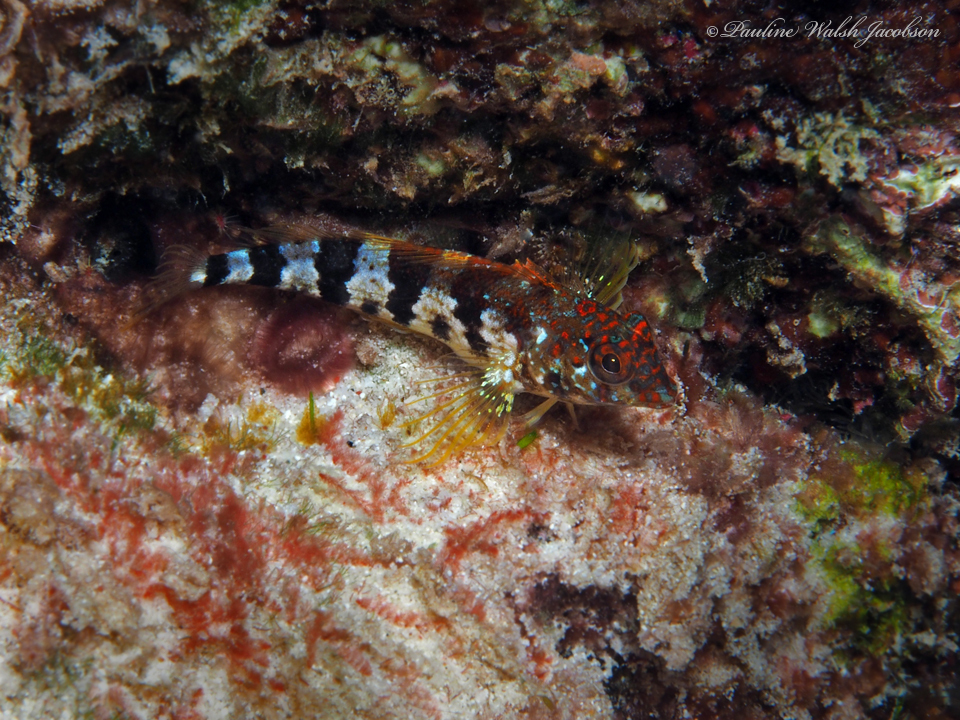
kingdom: Animalia
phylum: Chordata
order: Perciformes
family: Labrisomidae
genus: Malacoctenus
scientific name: Malacoctenus triangulatus
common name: Saddled blenny
